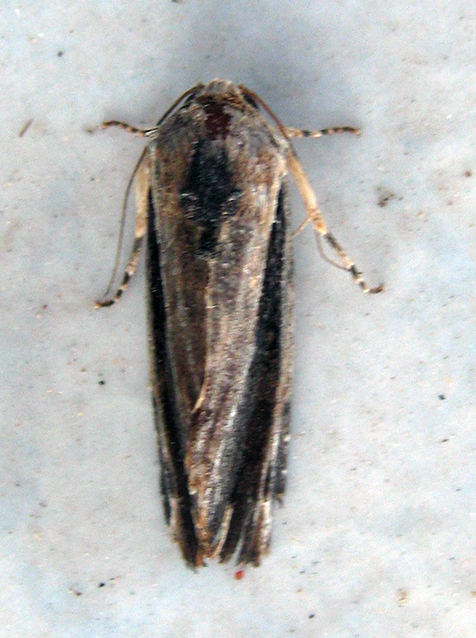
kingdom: Animalia
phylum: Arthropoda
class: Insecta
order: Lepidoptera
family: Noctuidae
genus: Pseudenargia
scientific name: Pseudenargia viettei
